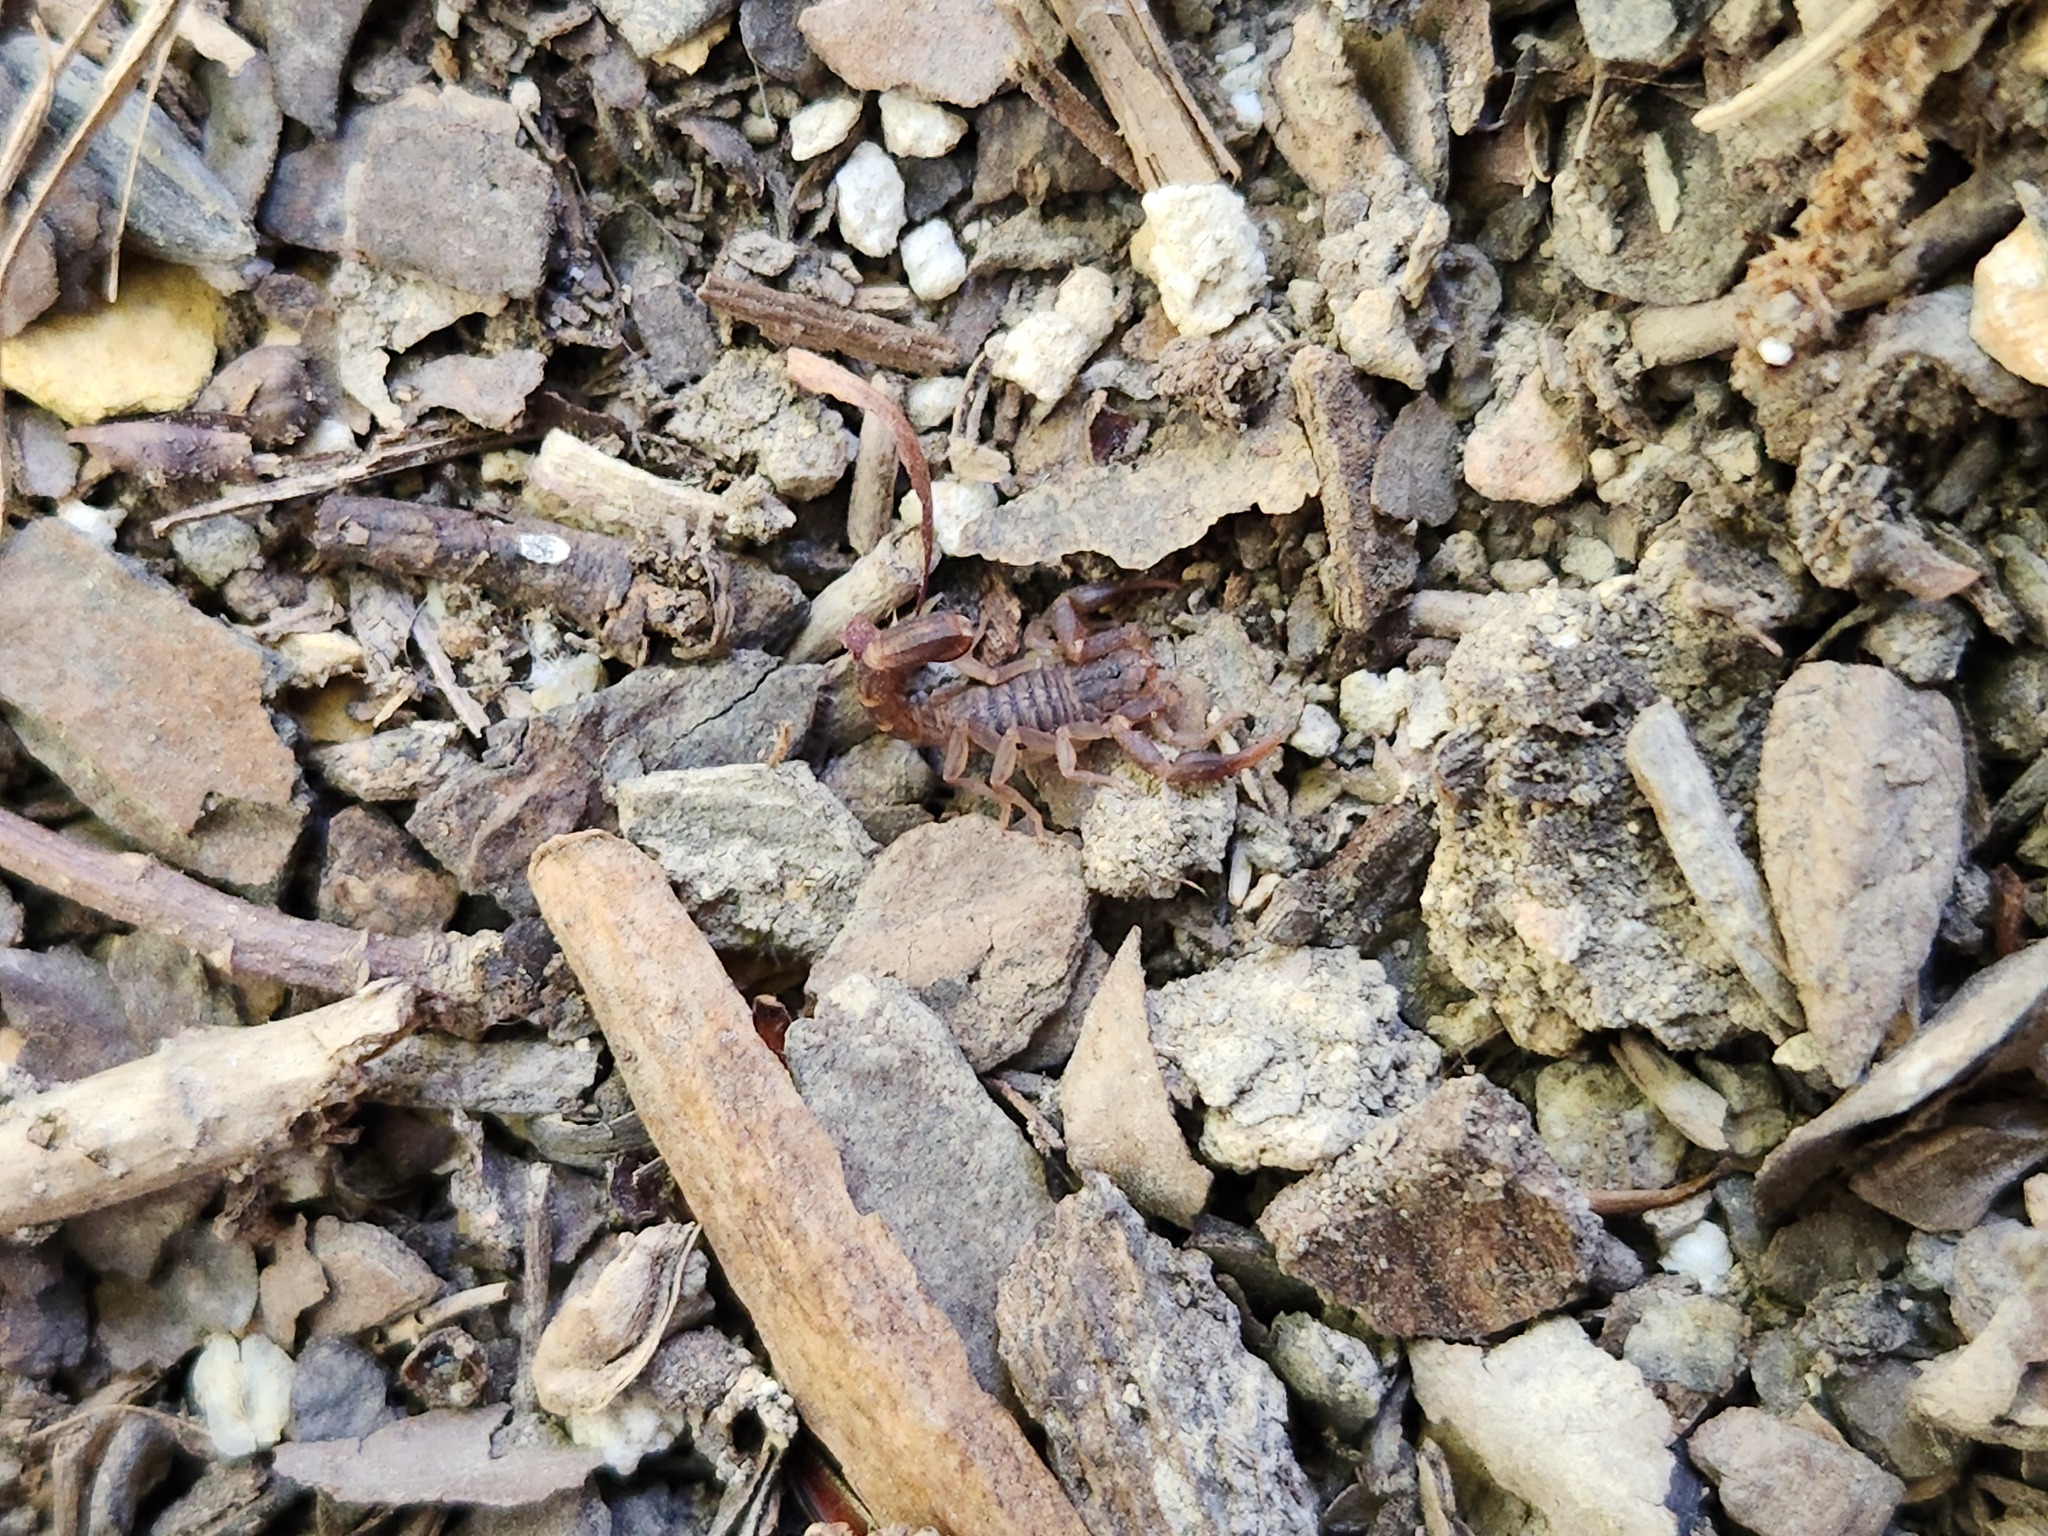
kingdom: Animalia
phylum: Arthropoda
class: Arachnida
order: Scorpiones
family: Vaejovidae
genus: Vaejovis
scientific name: Vaejovis carolinianus
